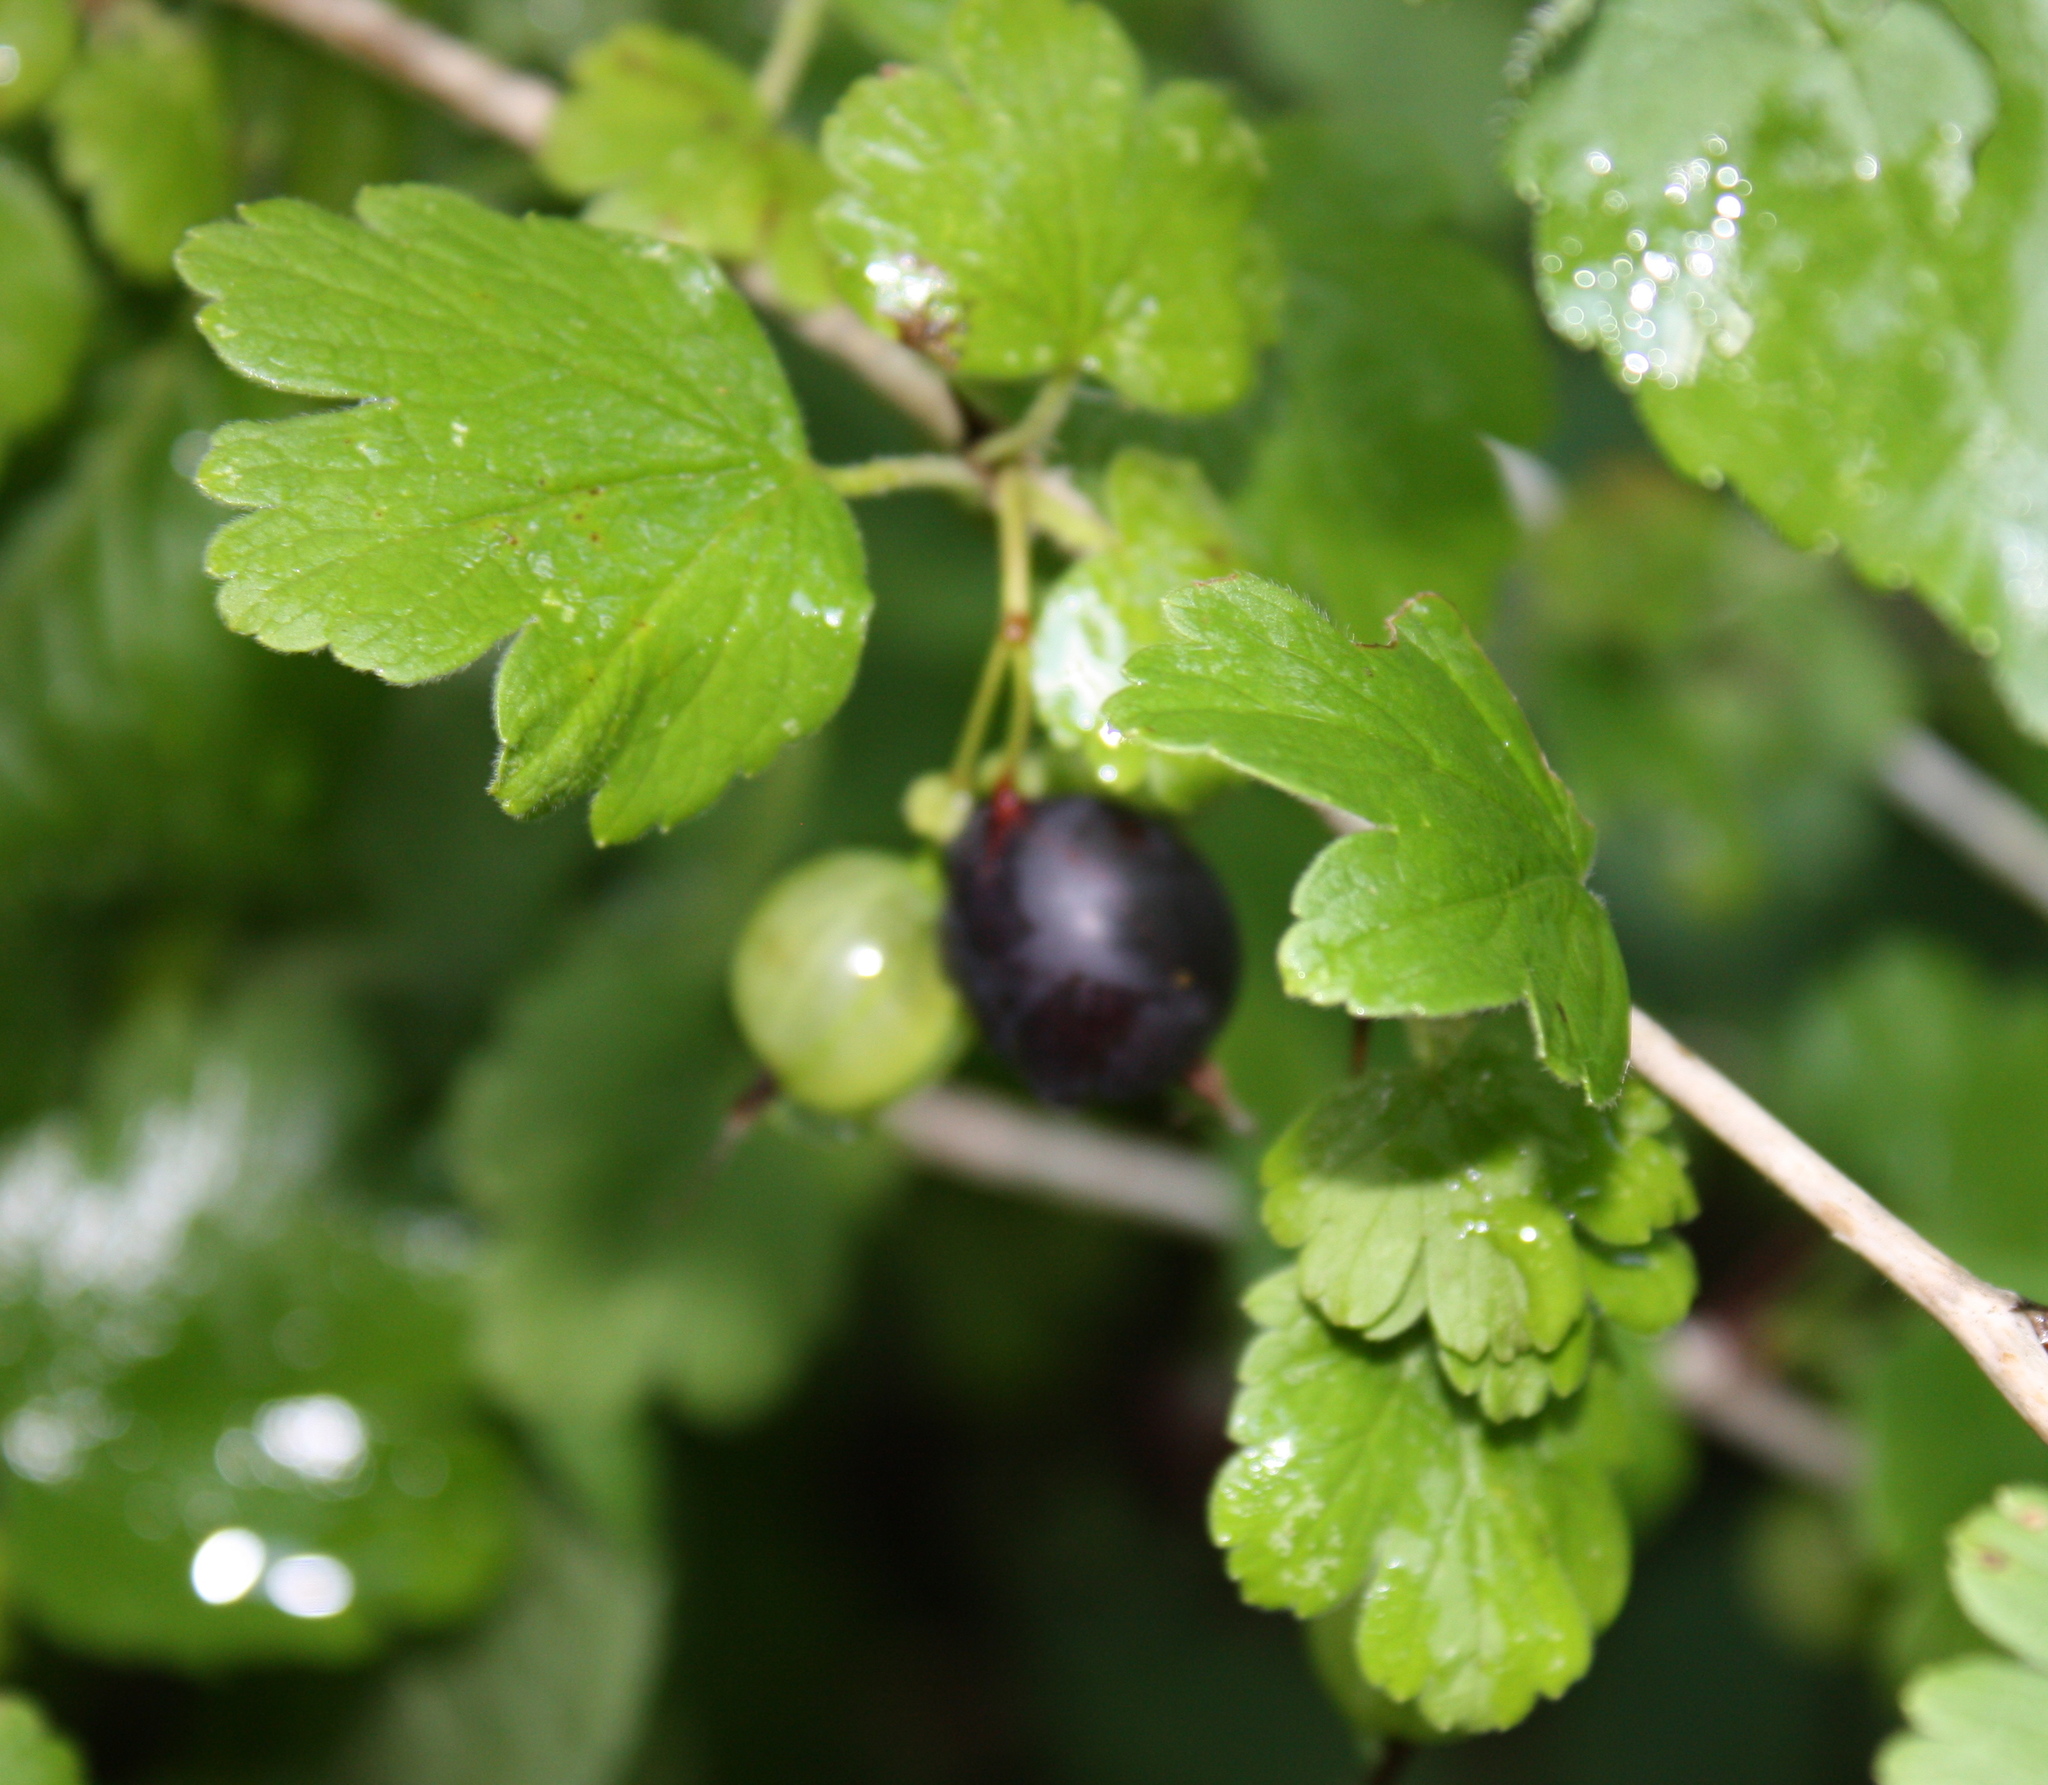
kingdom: Plantae
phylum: Tracheophyta
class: Magnoliopsida
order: Saxifragales
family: Grossulariaceae
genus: Ribes
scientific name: Ribes hirtellum
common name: Hairy gooseberry
